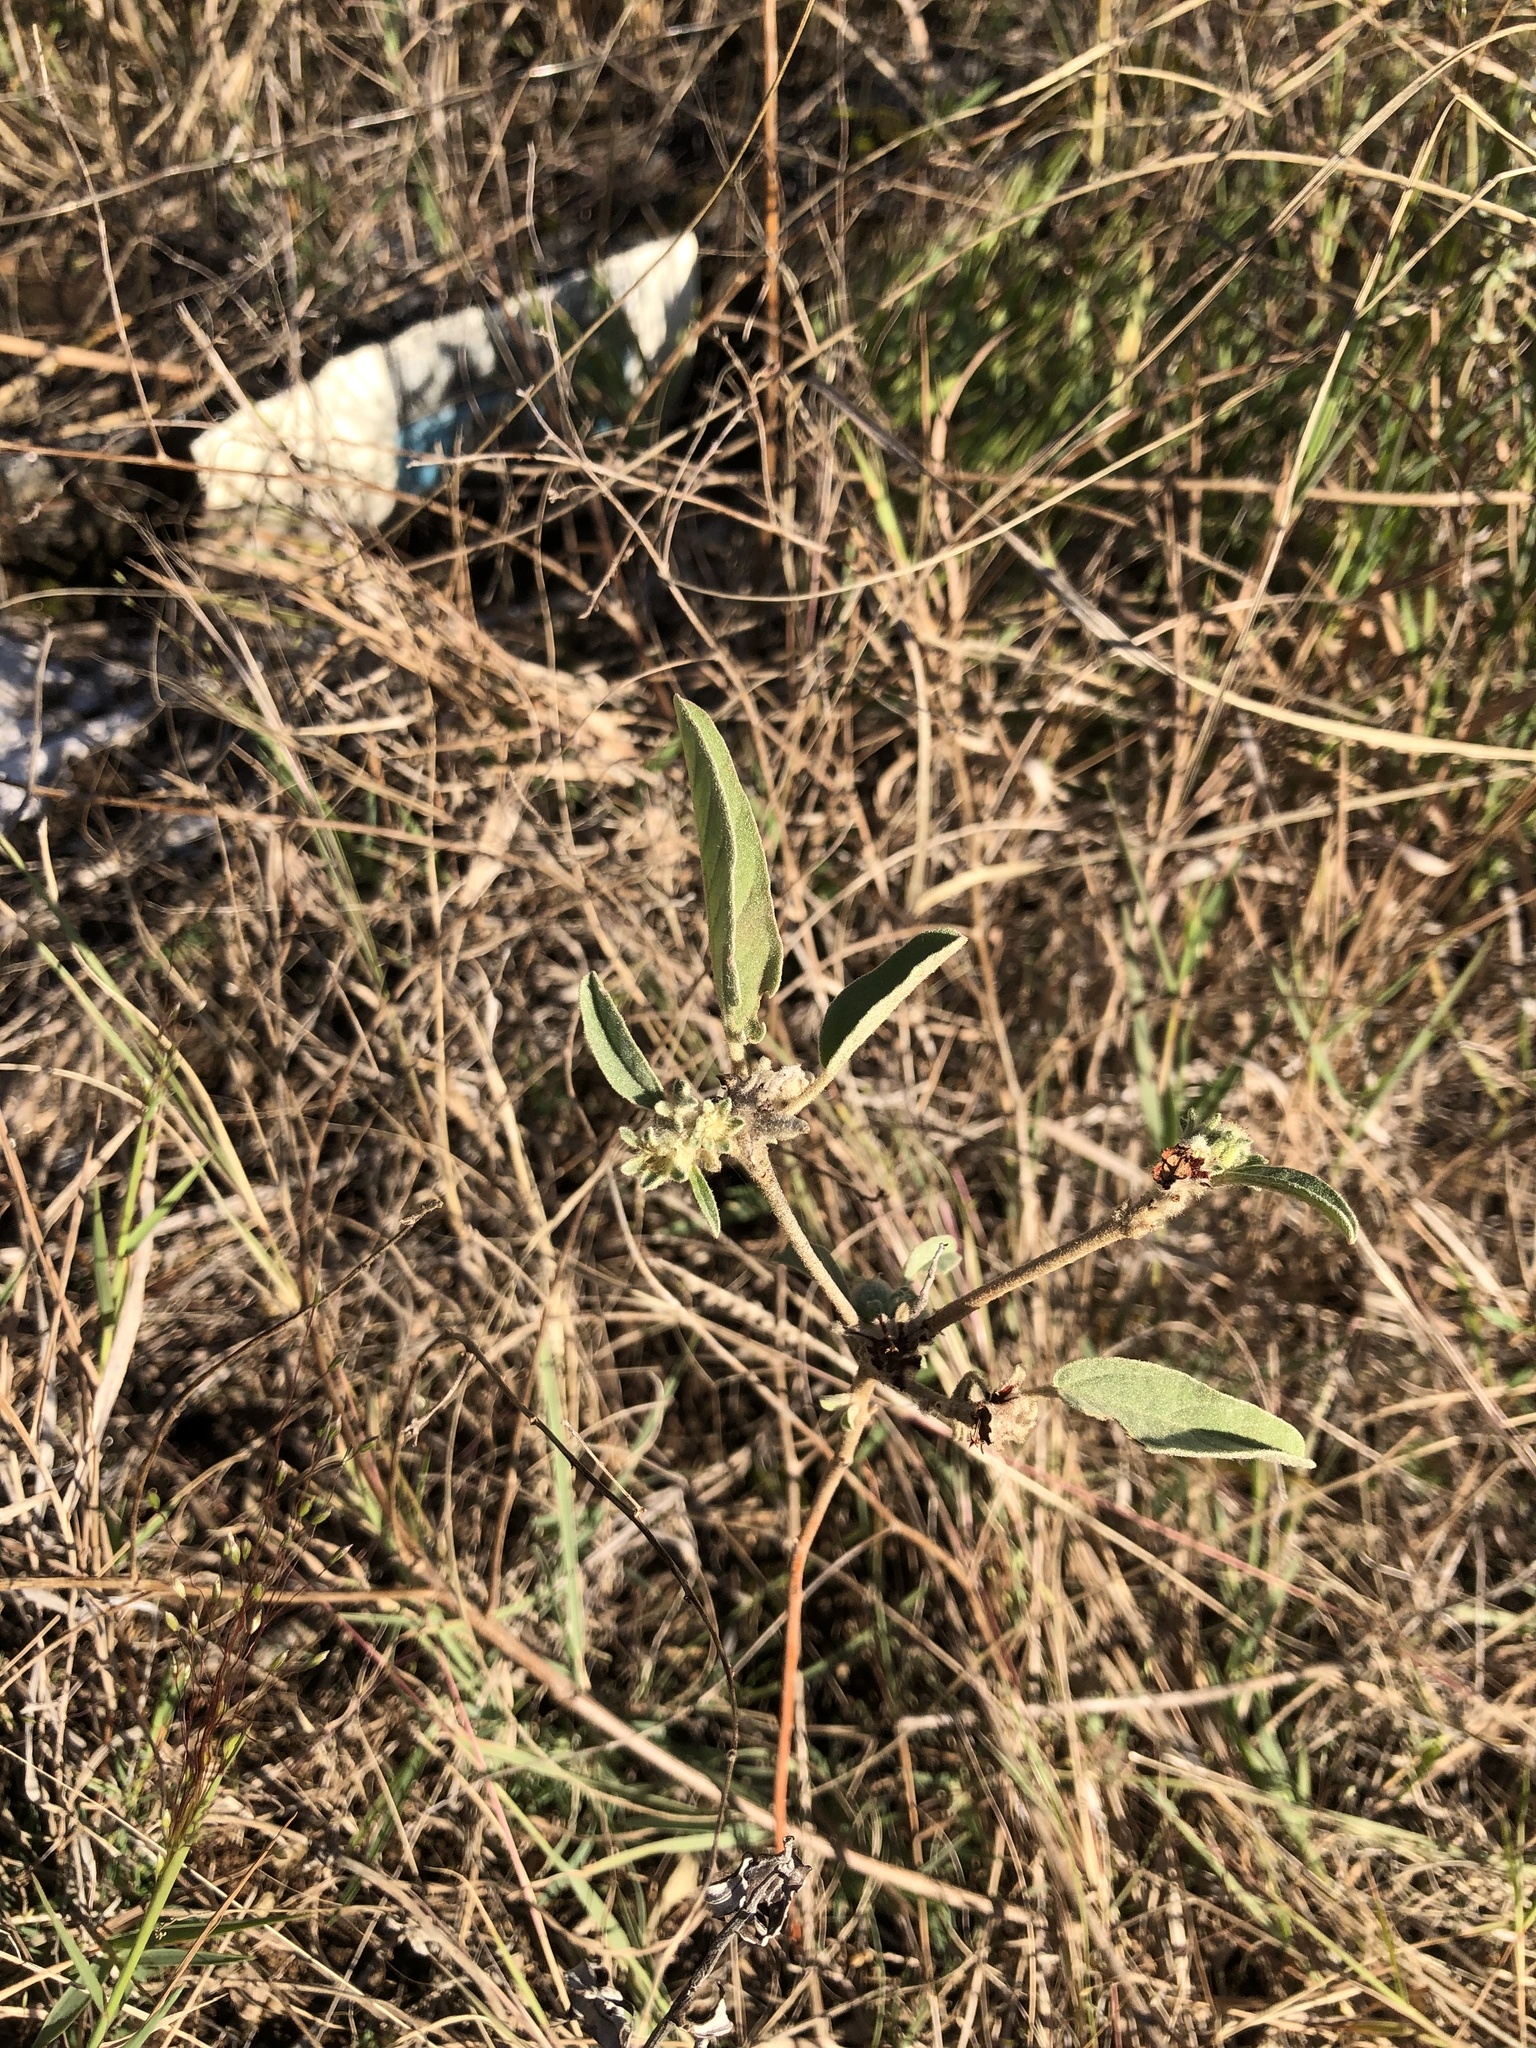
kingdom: Plantae
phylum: Tracheophyta
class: Magnoliopsida
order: Malpighiales
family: Euphorbiaceae
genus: Croton
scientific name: Croton capitatus
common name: Woolly croton
